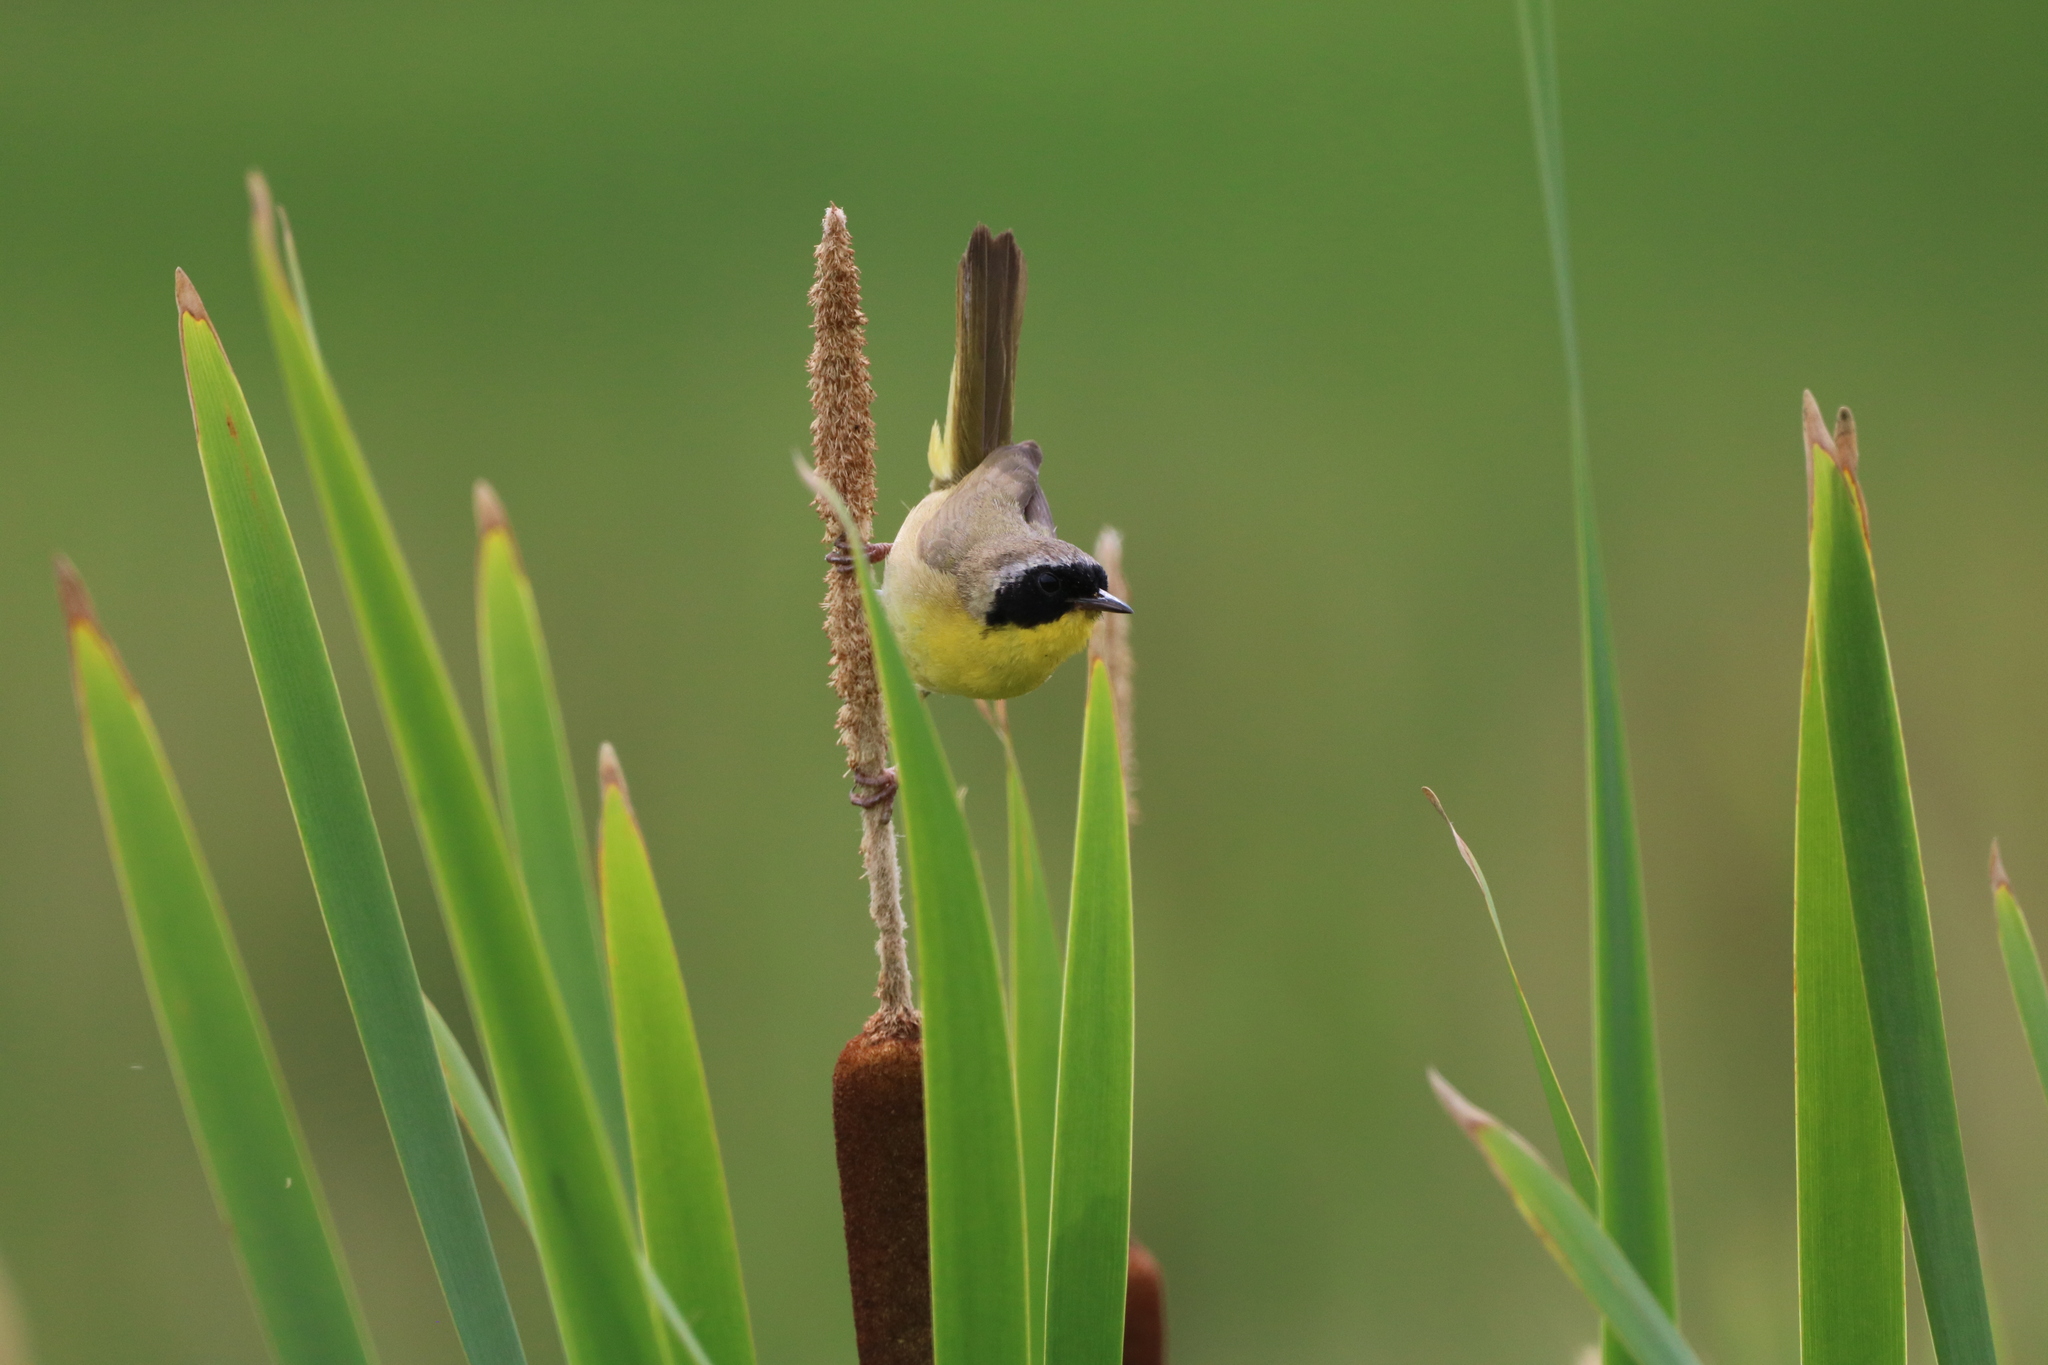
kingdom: Animalia
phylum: Chordata
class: Aves
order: Passeriformes
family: Parulidae
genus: Geothlypis
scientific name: Geothlypis trichas
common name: Common yellowthroat
